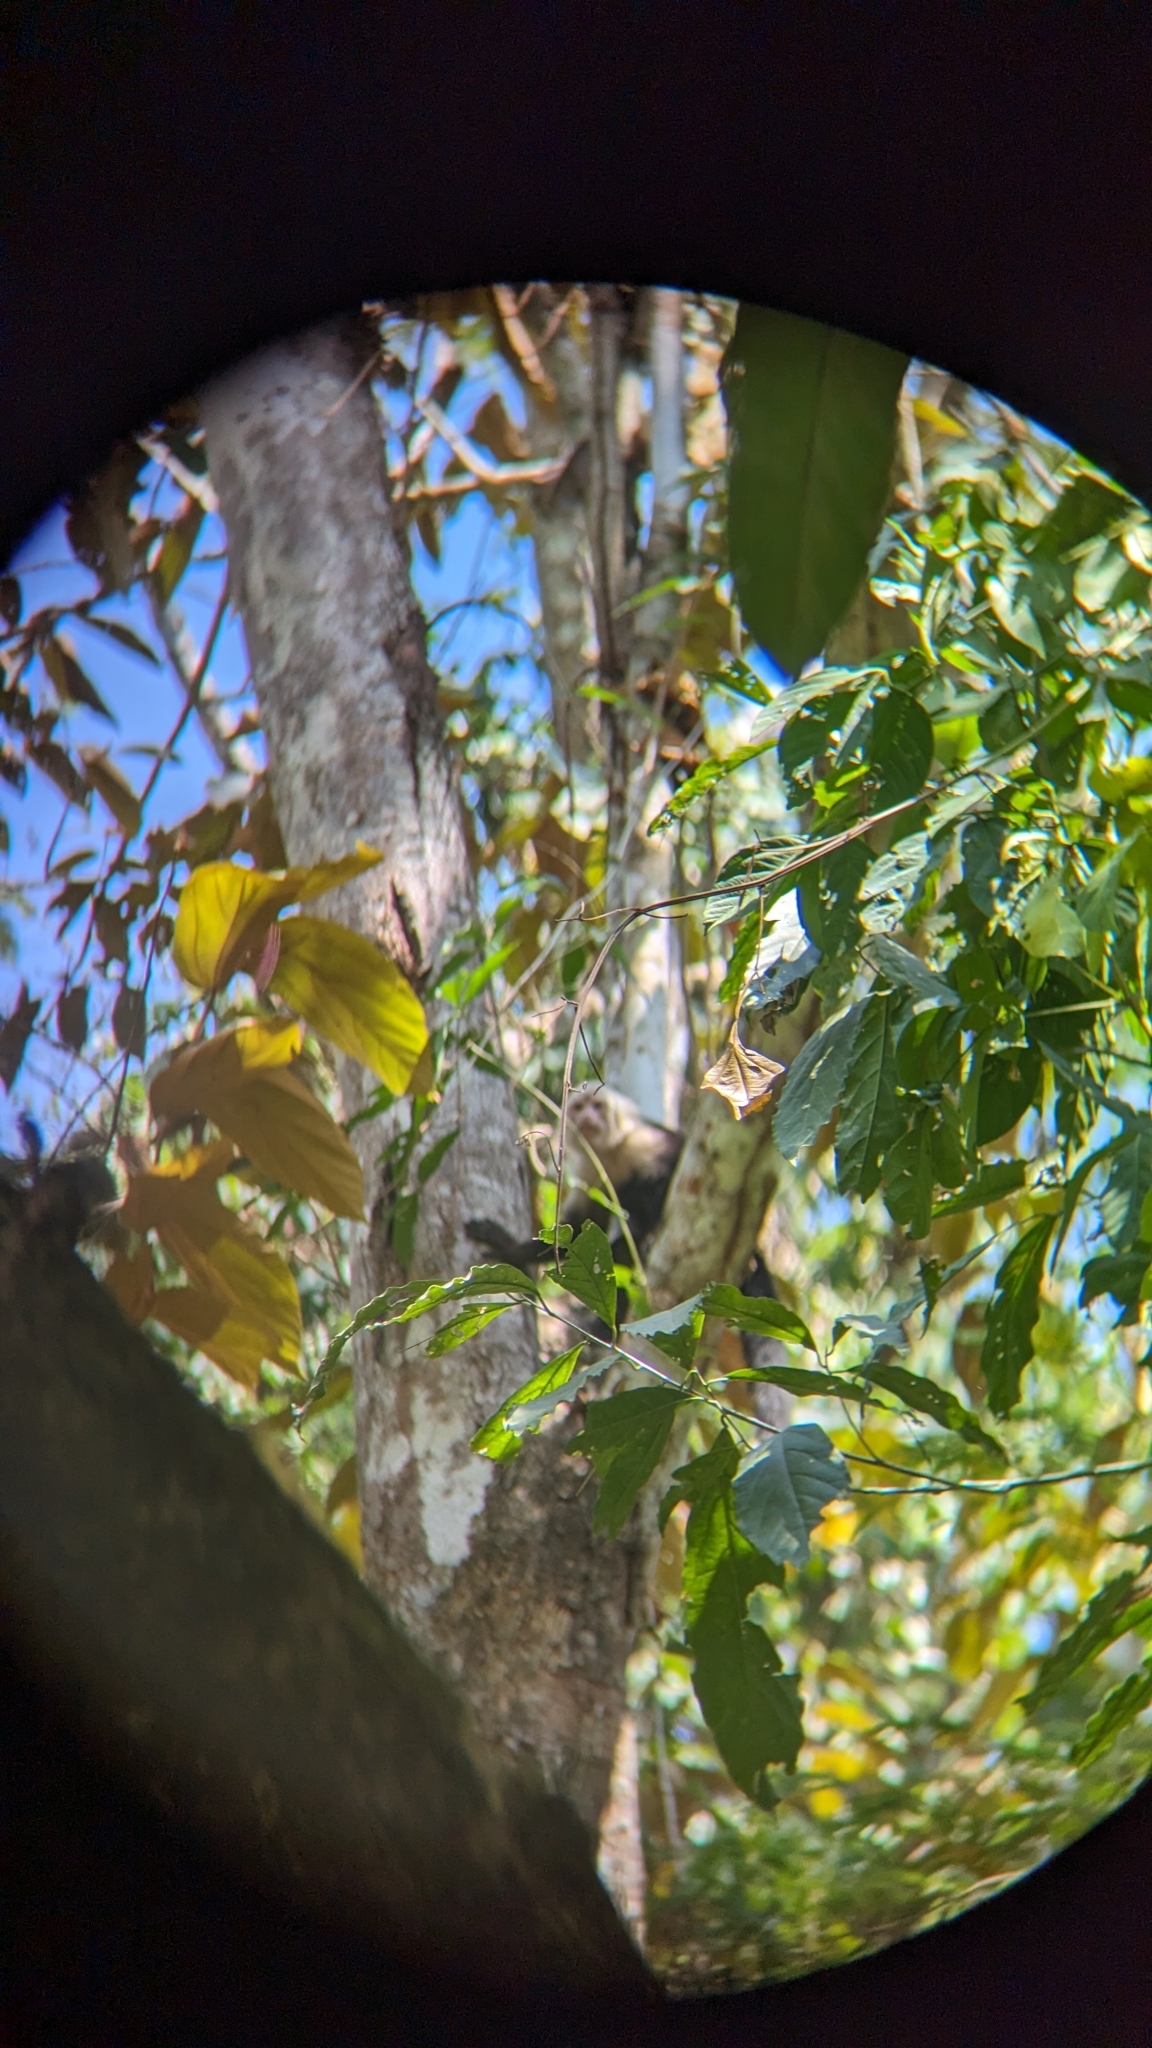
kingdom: Animalia
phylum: Chordata
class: Mammalia
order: Primates
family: Cebidae
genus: Cebus
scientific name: Cebus imitator
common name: Panamanian white-faced capuchin
